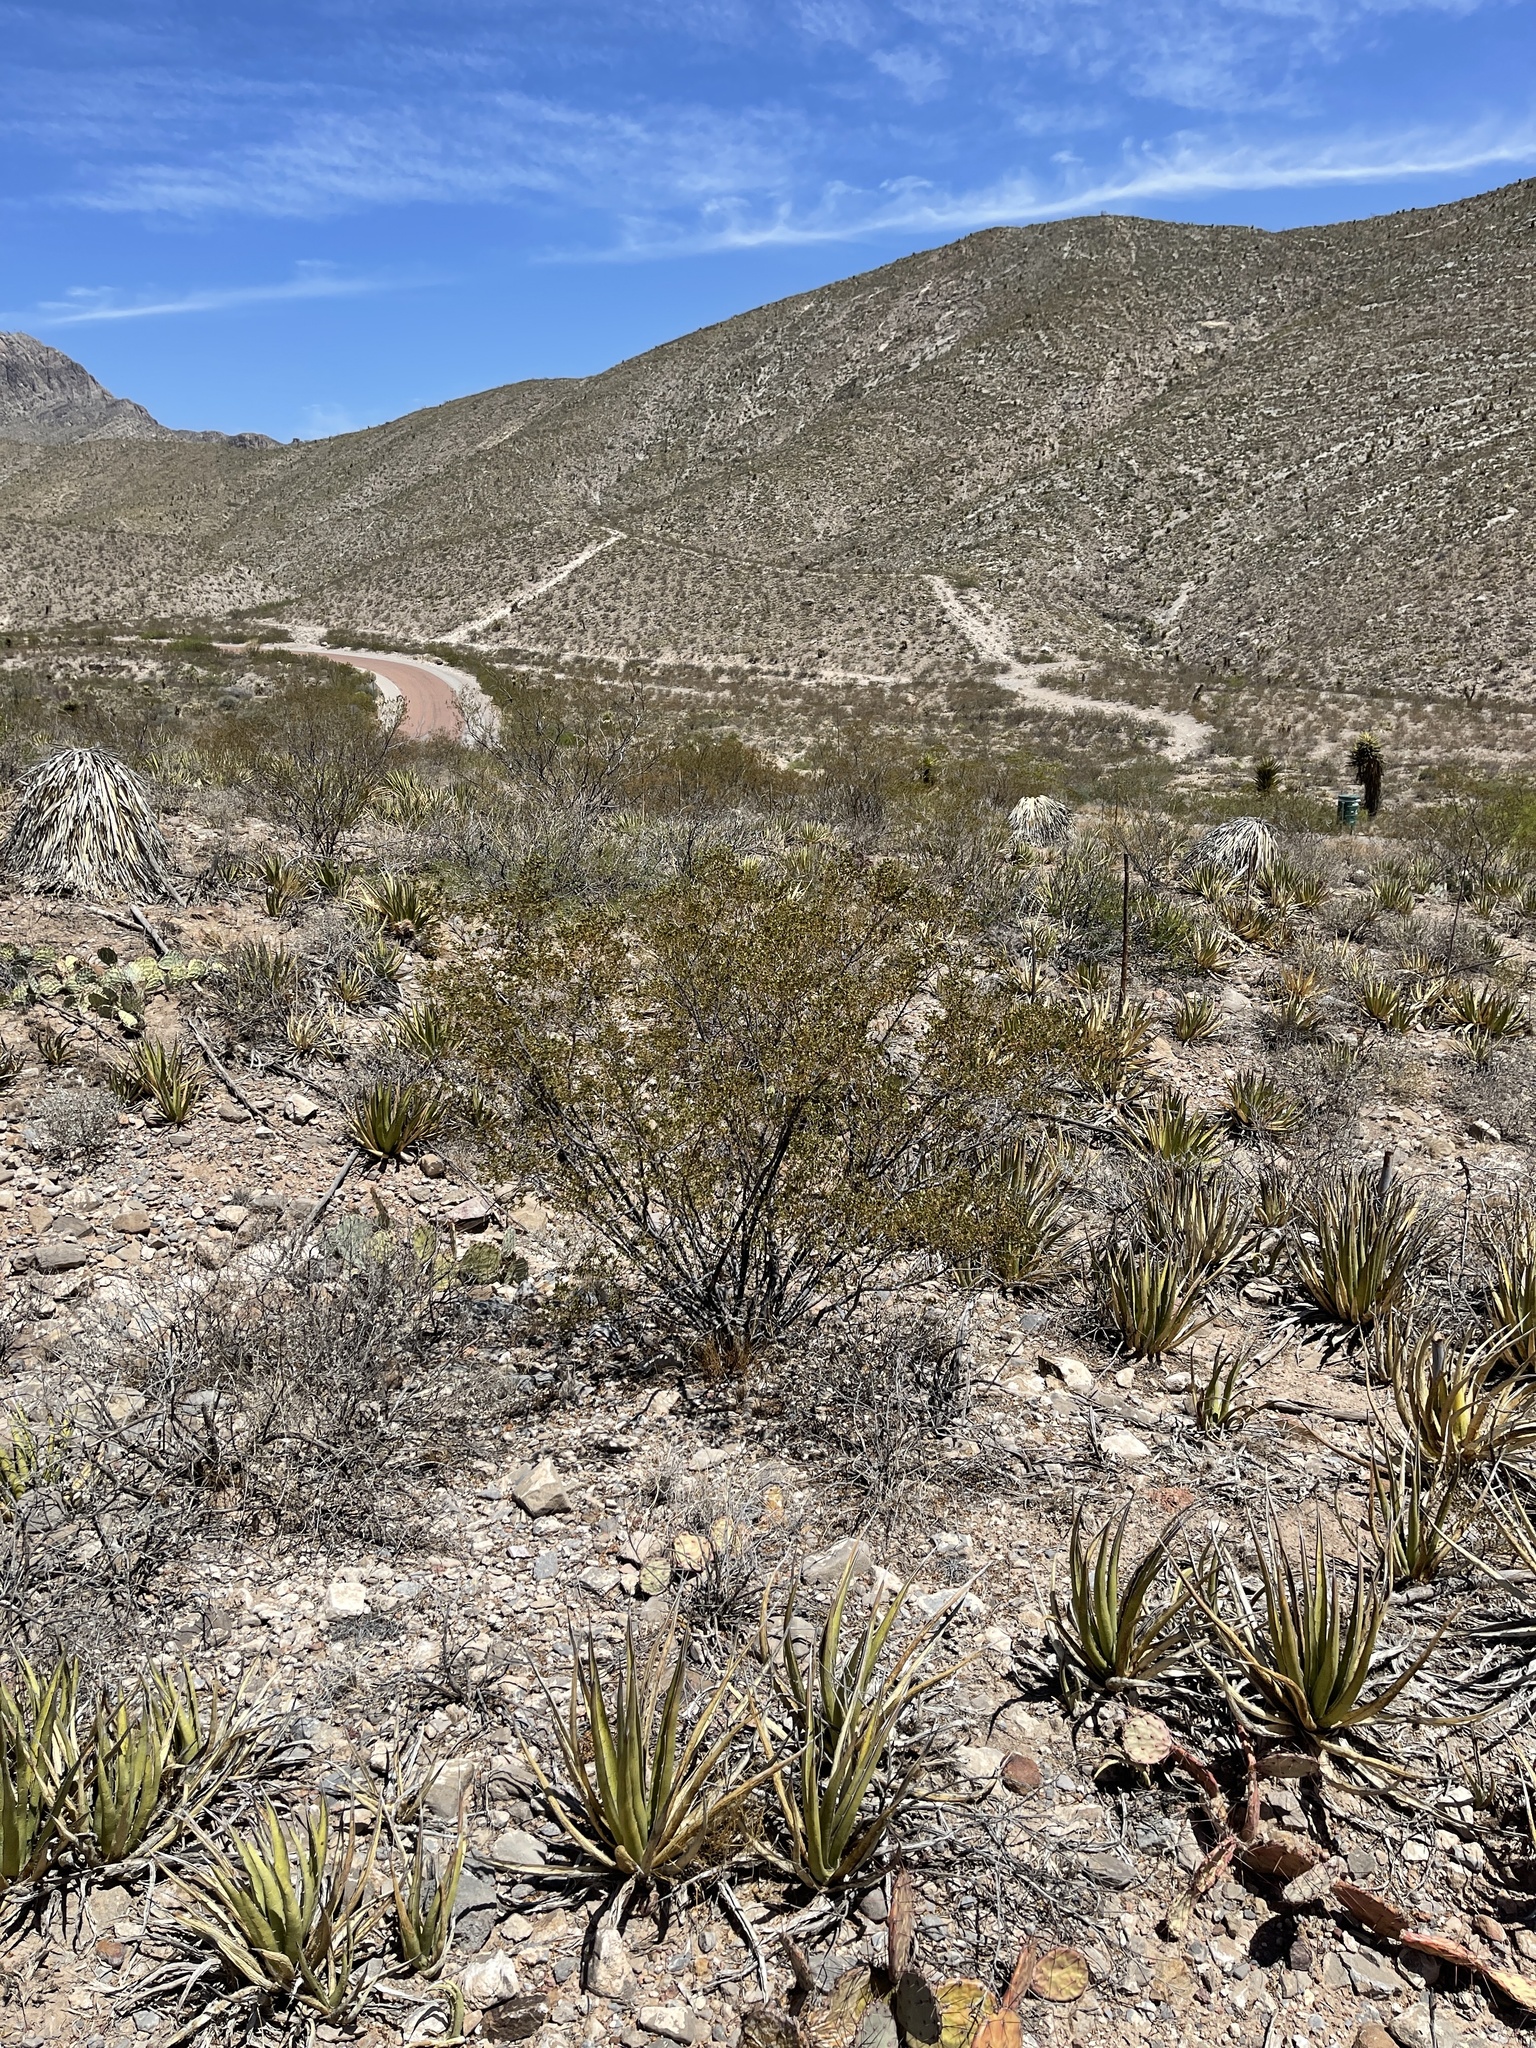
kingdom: Plantae
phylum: Tracheophyta
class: Magnoliopsida
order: Zygophyllales
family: Zygophyllaceae
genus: Larrea
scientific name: Larrea tridentata
